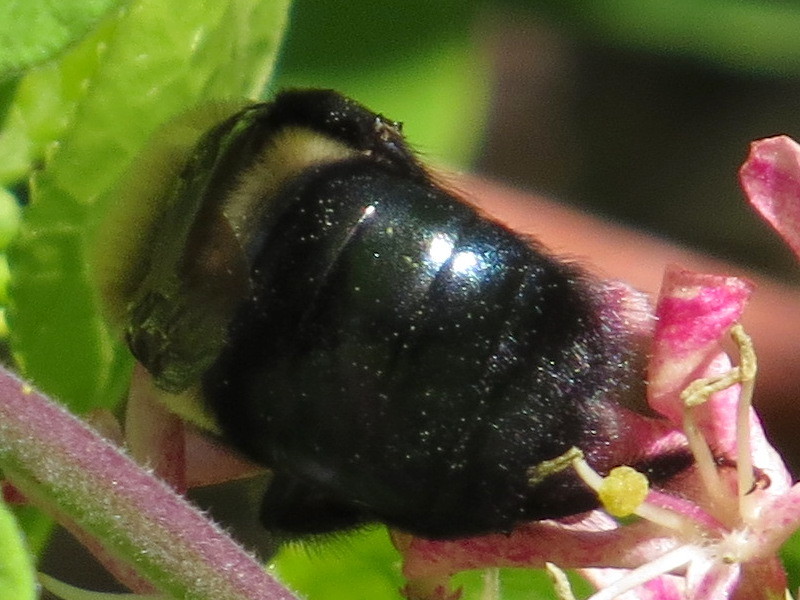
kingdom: Animalia
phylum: Arthropoda
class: Insecta
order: Hymenoptera
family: Apidae
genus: Xylocopa
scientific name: Xylocopa virginica
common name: Carpenter bee
